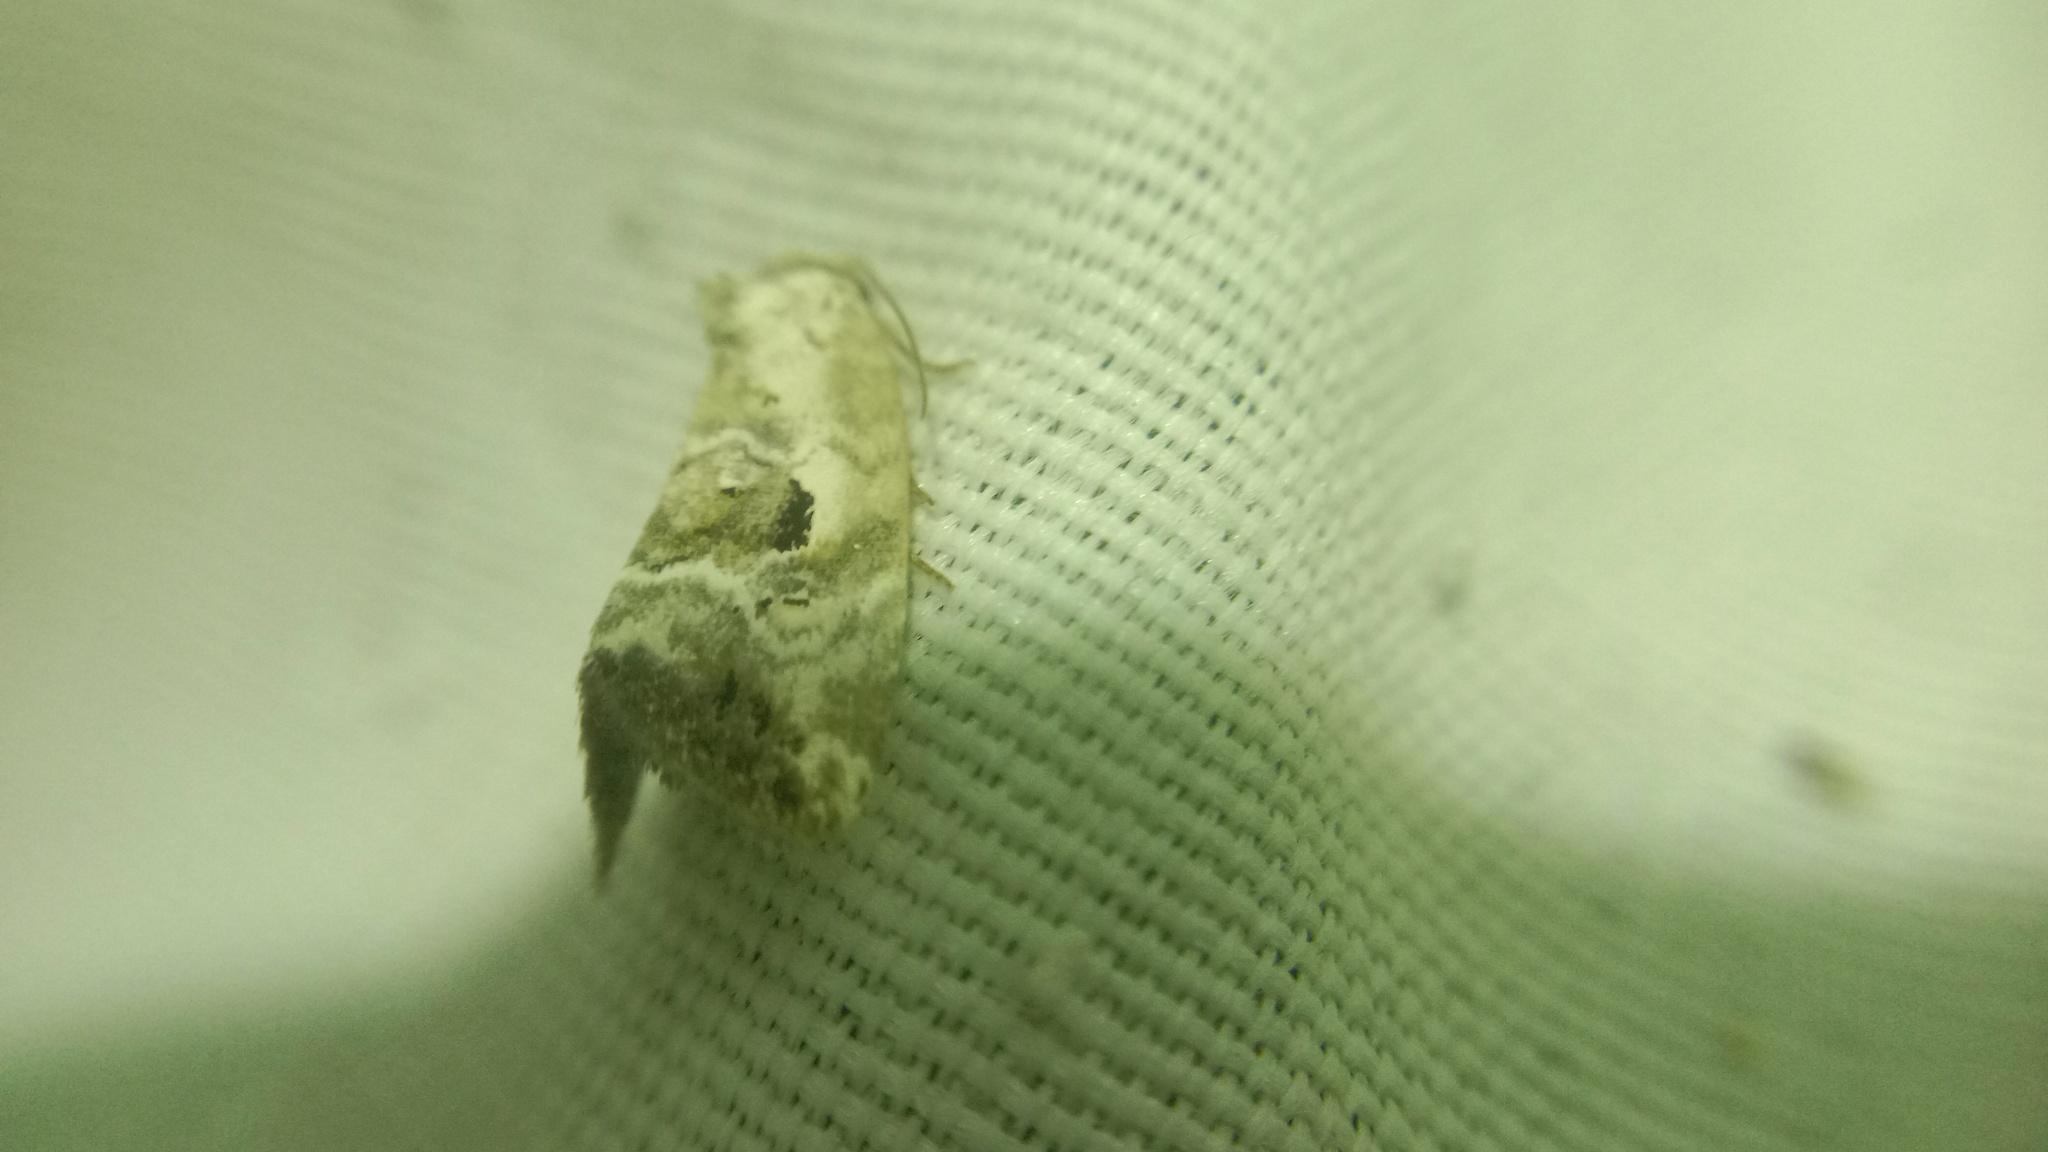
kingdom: Animalia
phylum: Arthropoda
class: Insecta
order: Lepidoptera
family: Noctuidae
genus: Elaphria
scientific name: Elaphria venustula
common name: Rosy marbled
